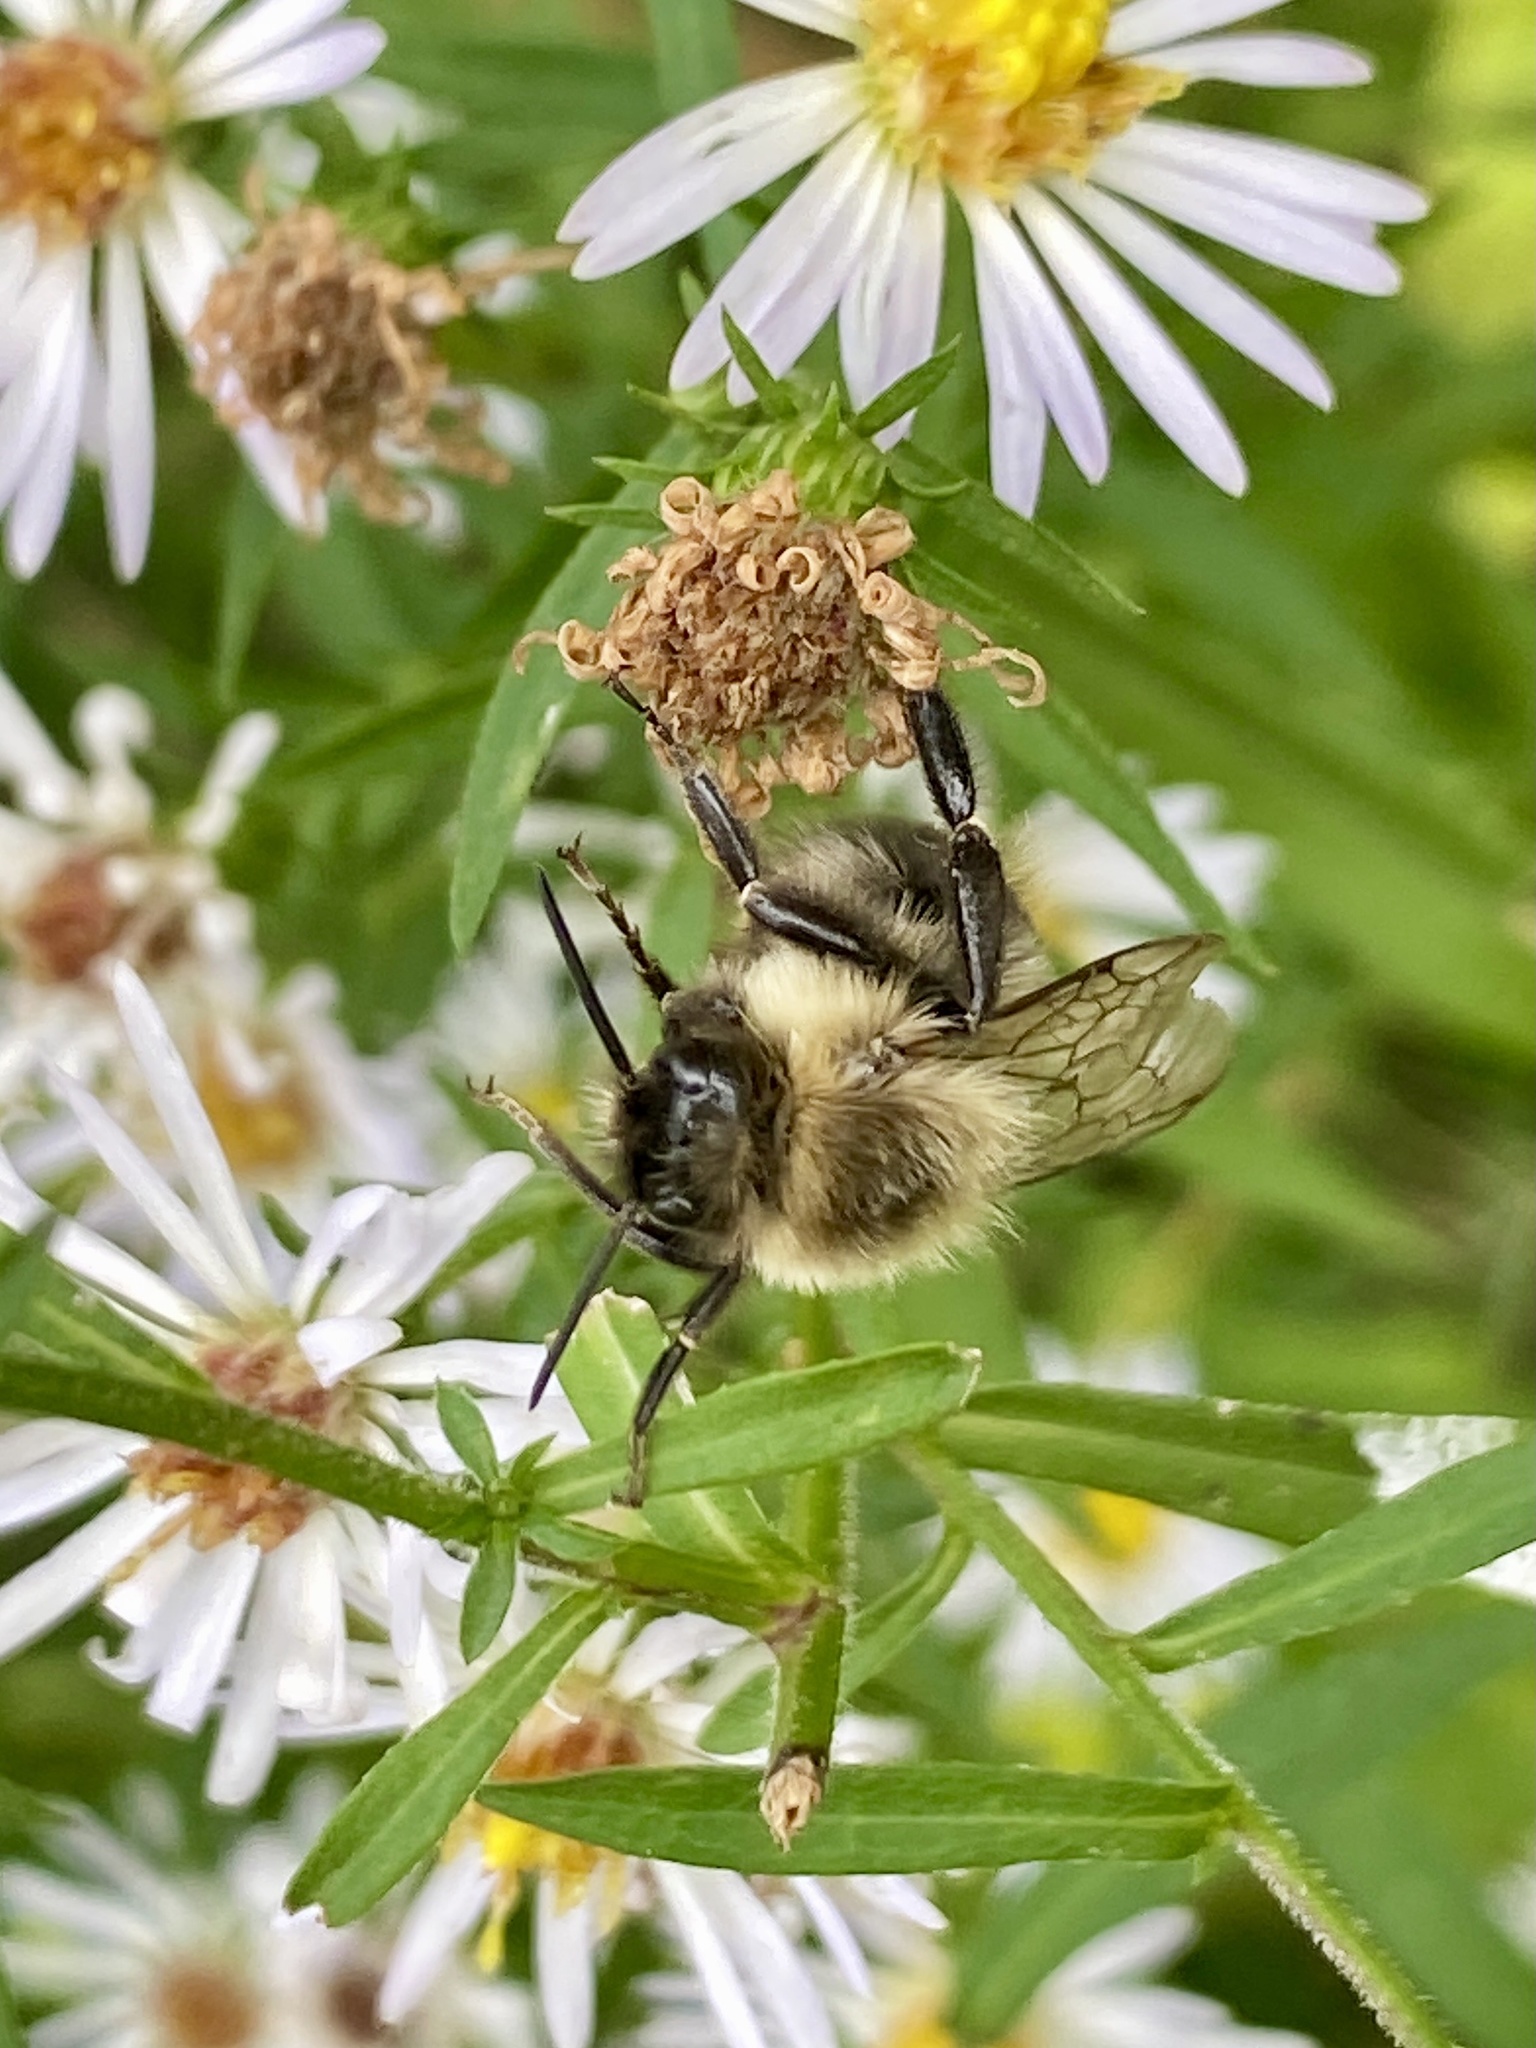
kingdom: Animalia
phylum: Arthropoda
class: Insecta
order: Hymenoptera
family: Apidae
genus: Bombus
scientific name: Bombus impatiens
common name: Common eastern bumble bee
